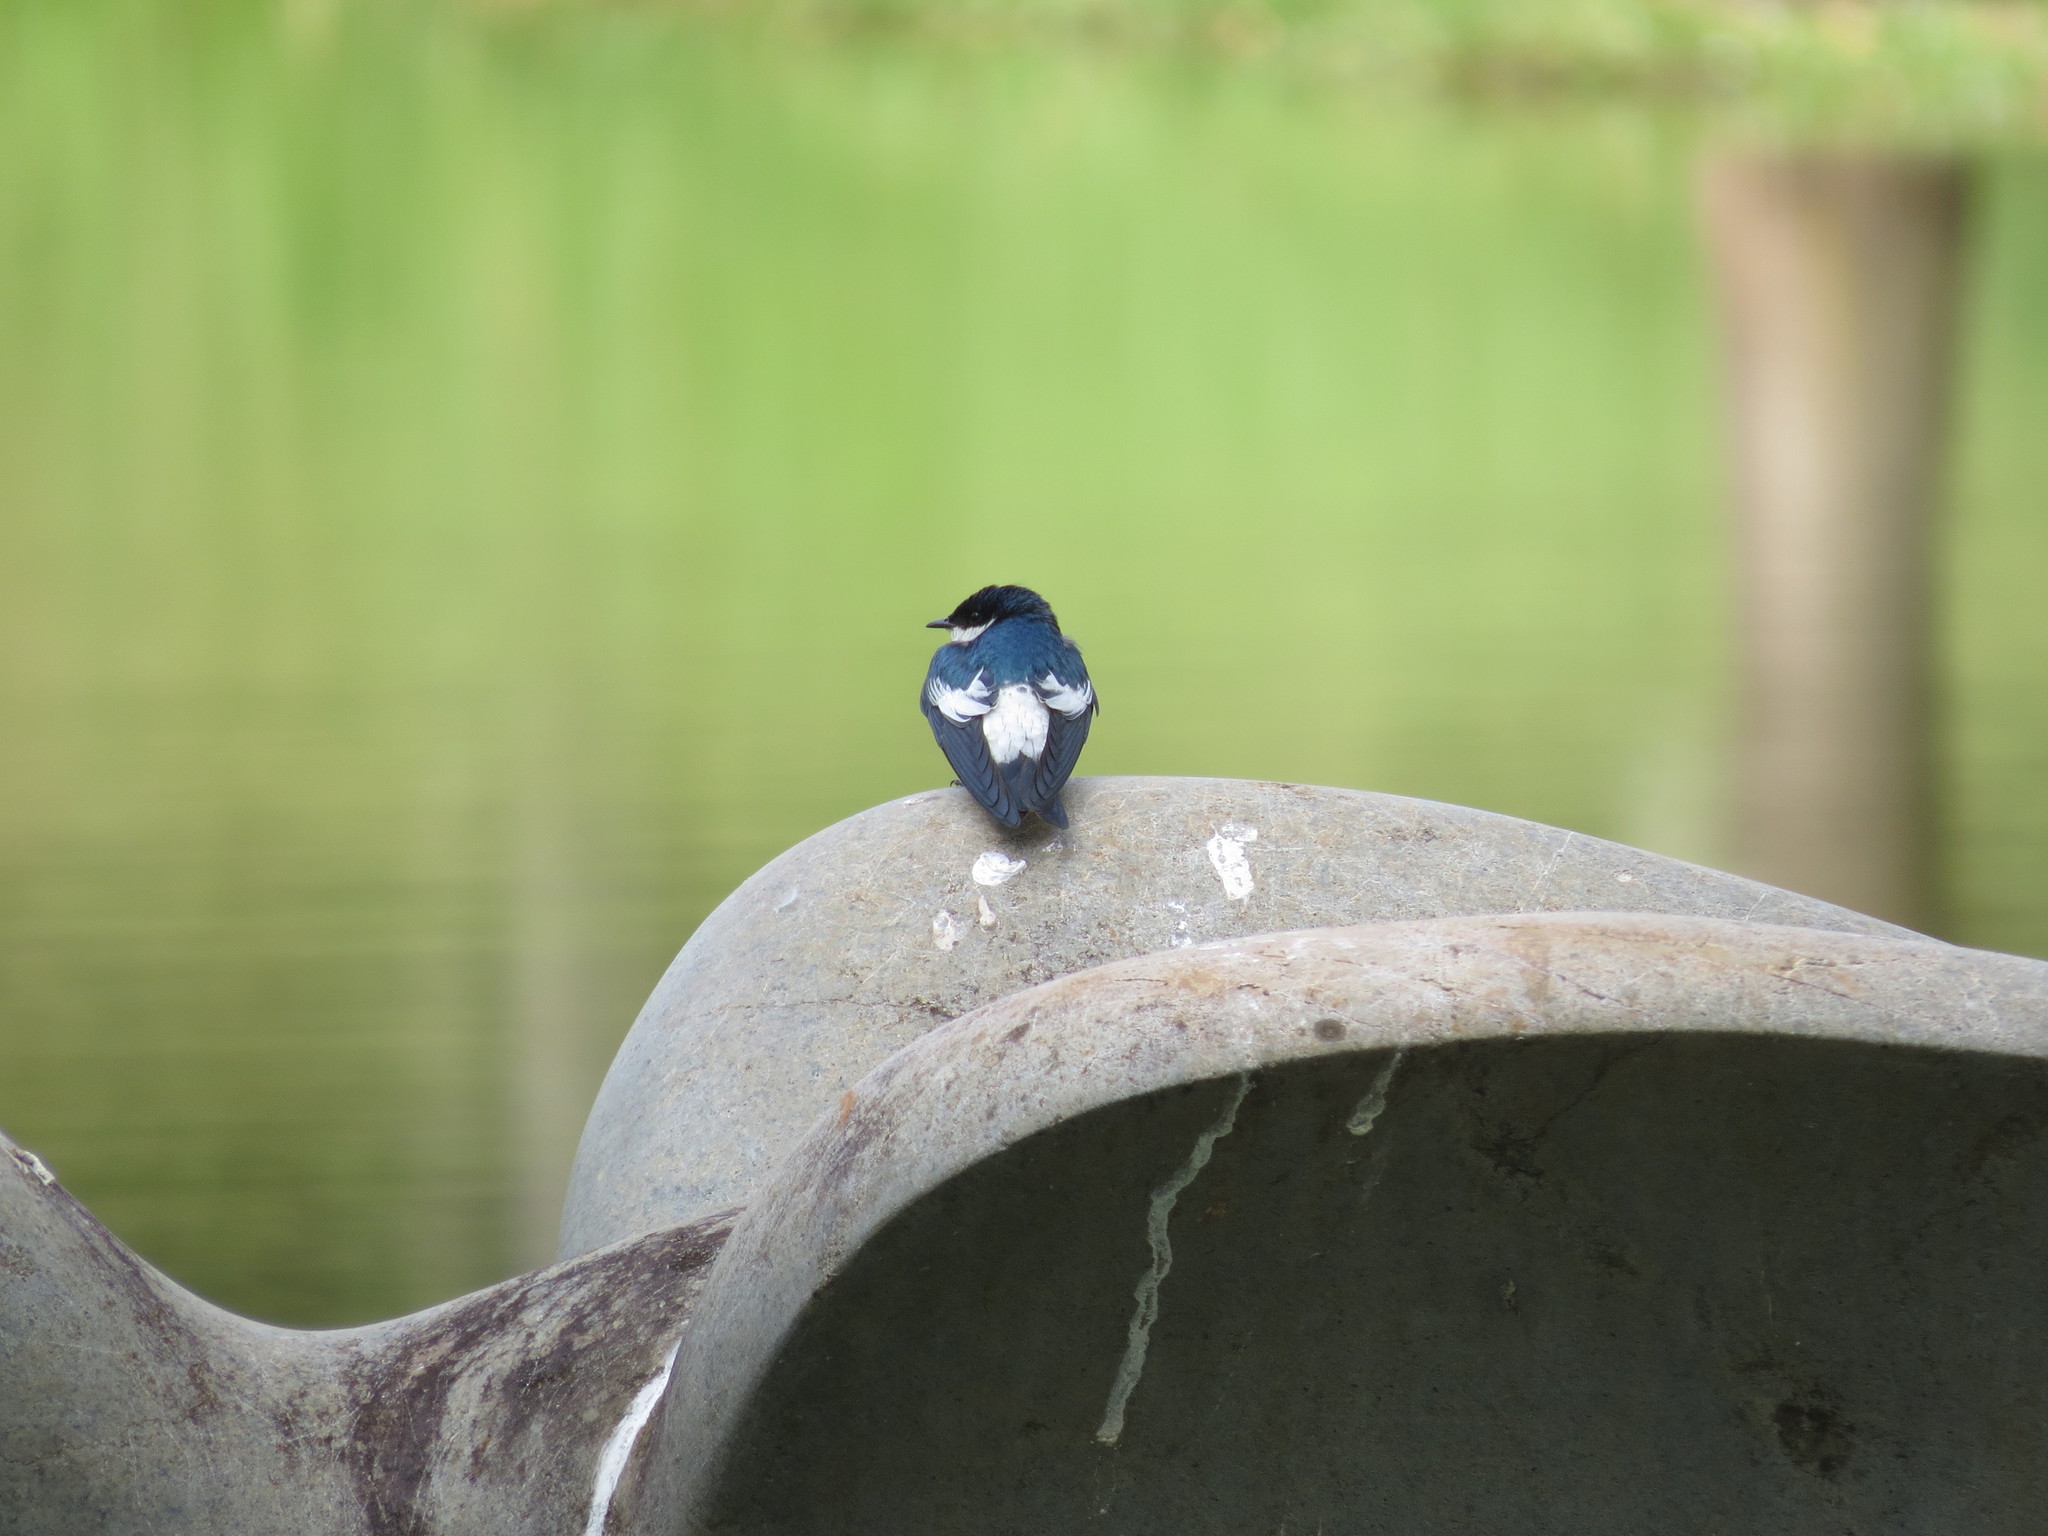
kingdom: Animalia
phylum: Chordata
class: Aves
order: Passeriformes
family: Hirundinidae
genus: Tachycineta
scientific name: Tachycineta albiventer
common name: White-winged swallow
